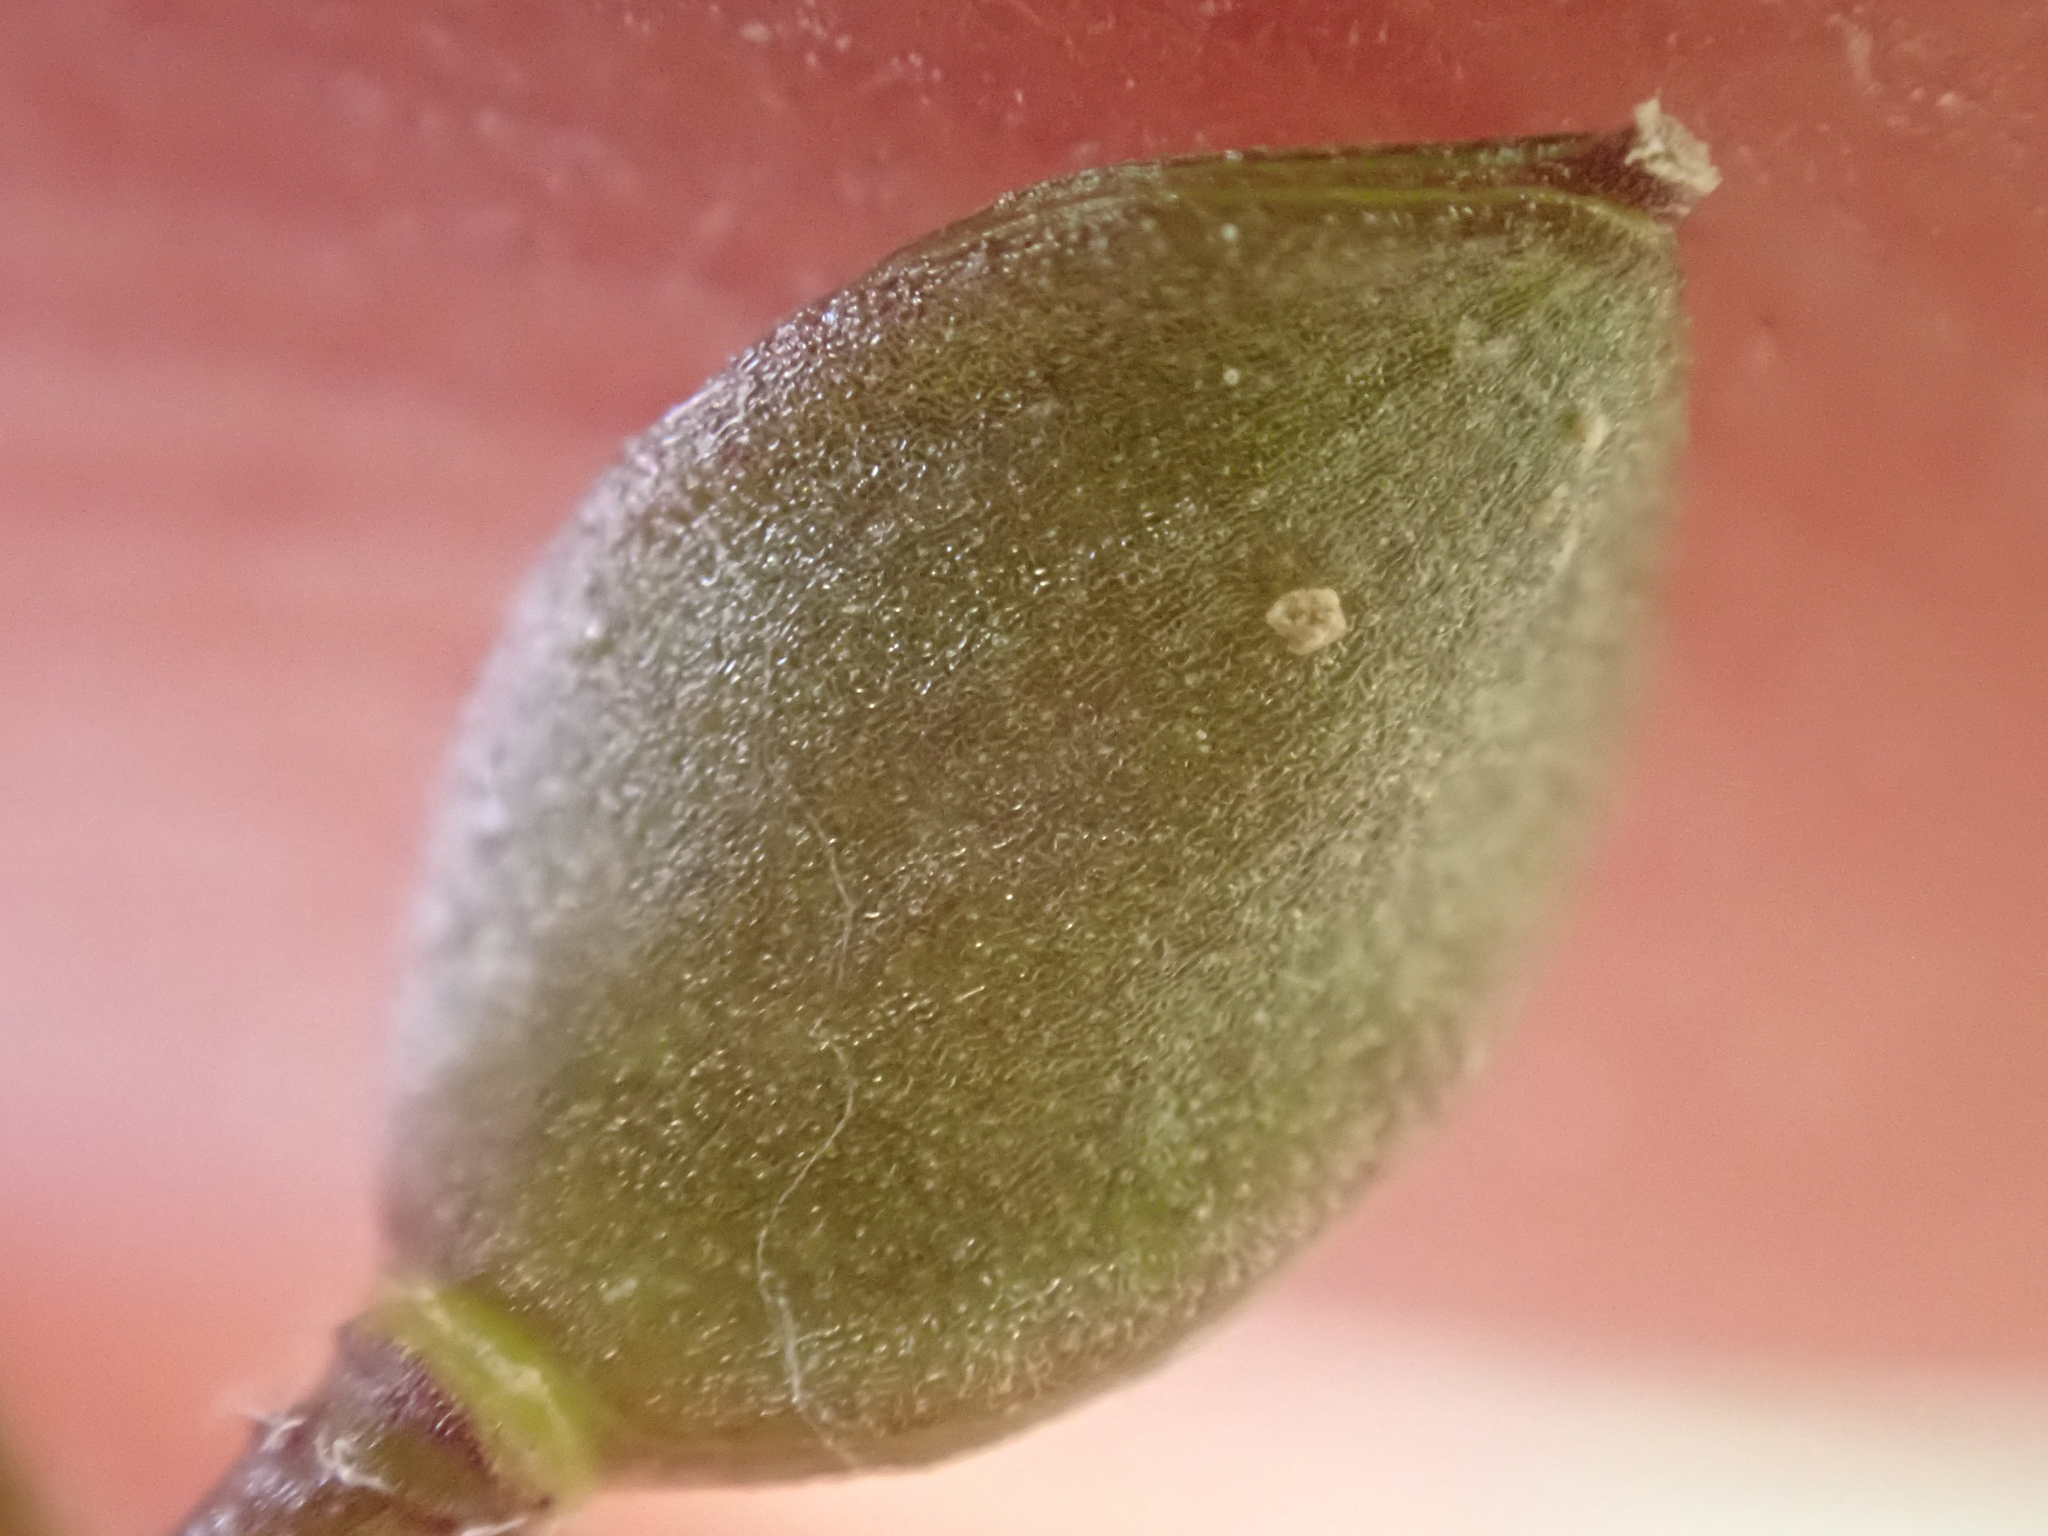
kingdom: Plantae
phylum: Tracheophyta
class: Magnoliopsida
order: Brassicales
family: Brassicaceae
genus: Athysanus
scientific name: Athysanus unilateralis
